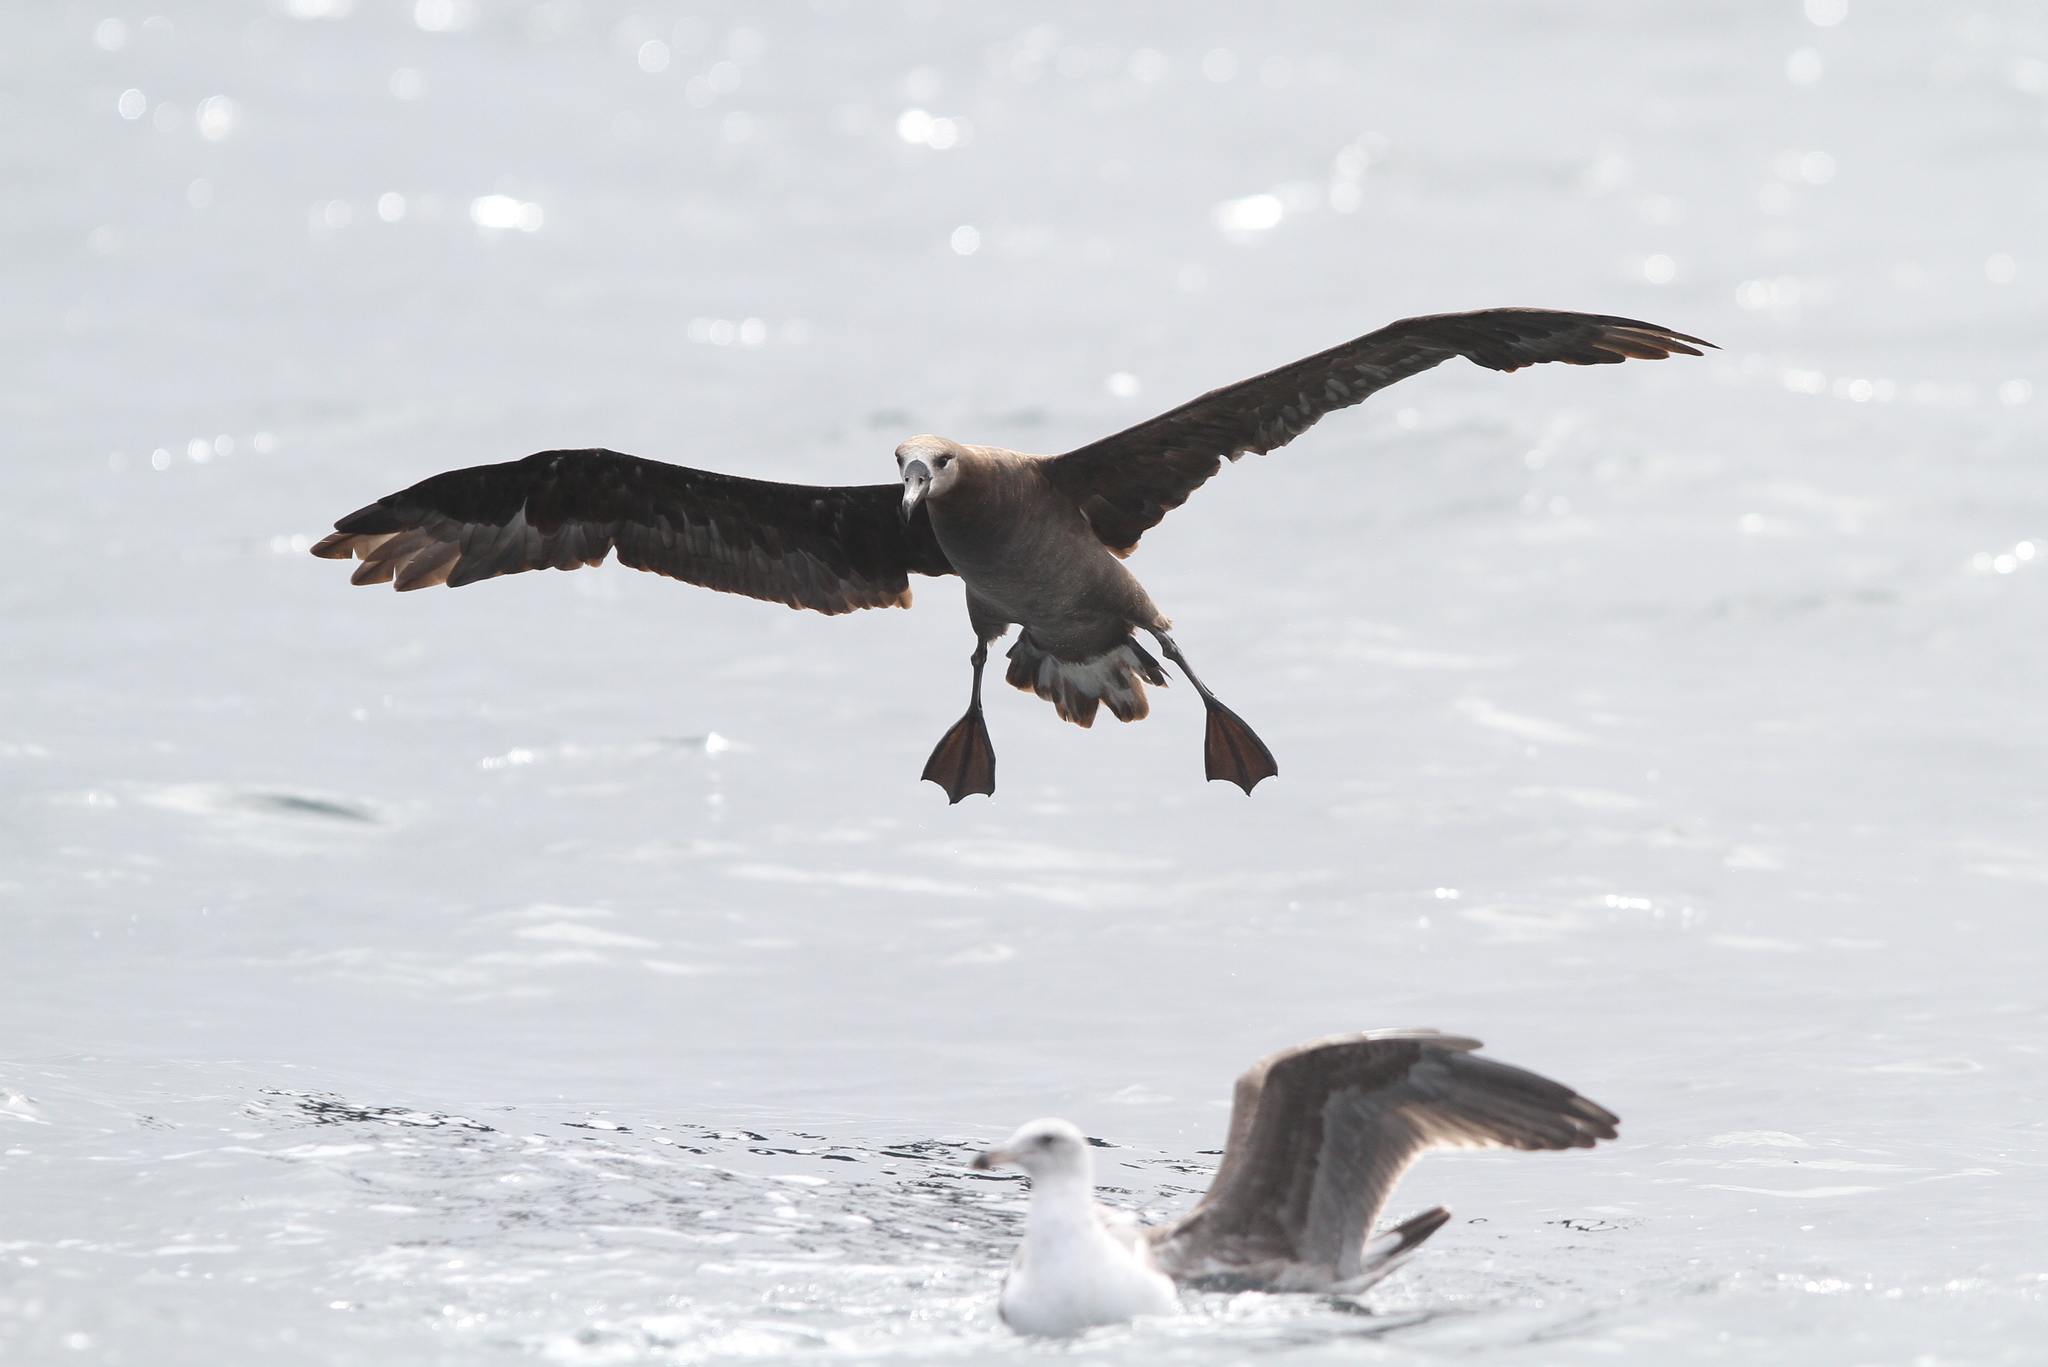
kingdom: Animalia
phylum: Chordata
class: Aves
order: Procellariiformes
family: Diomedeidae
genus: Phoebastria
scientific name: Phoebastria nigripes
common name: Black-footed albatross
